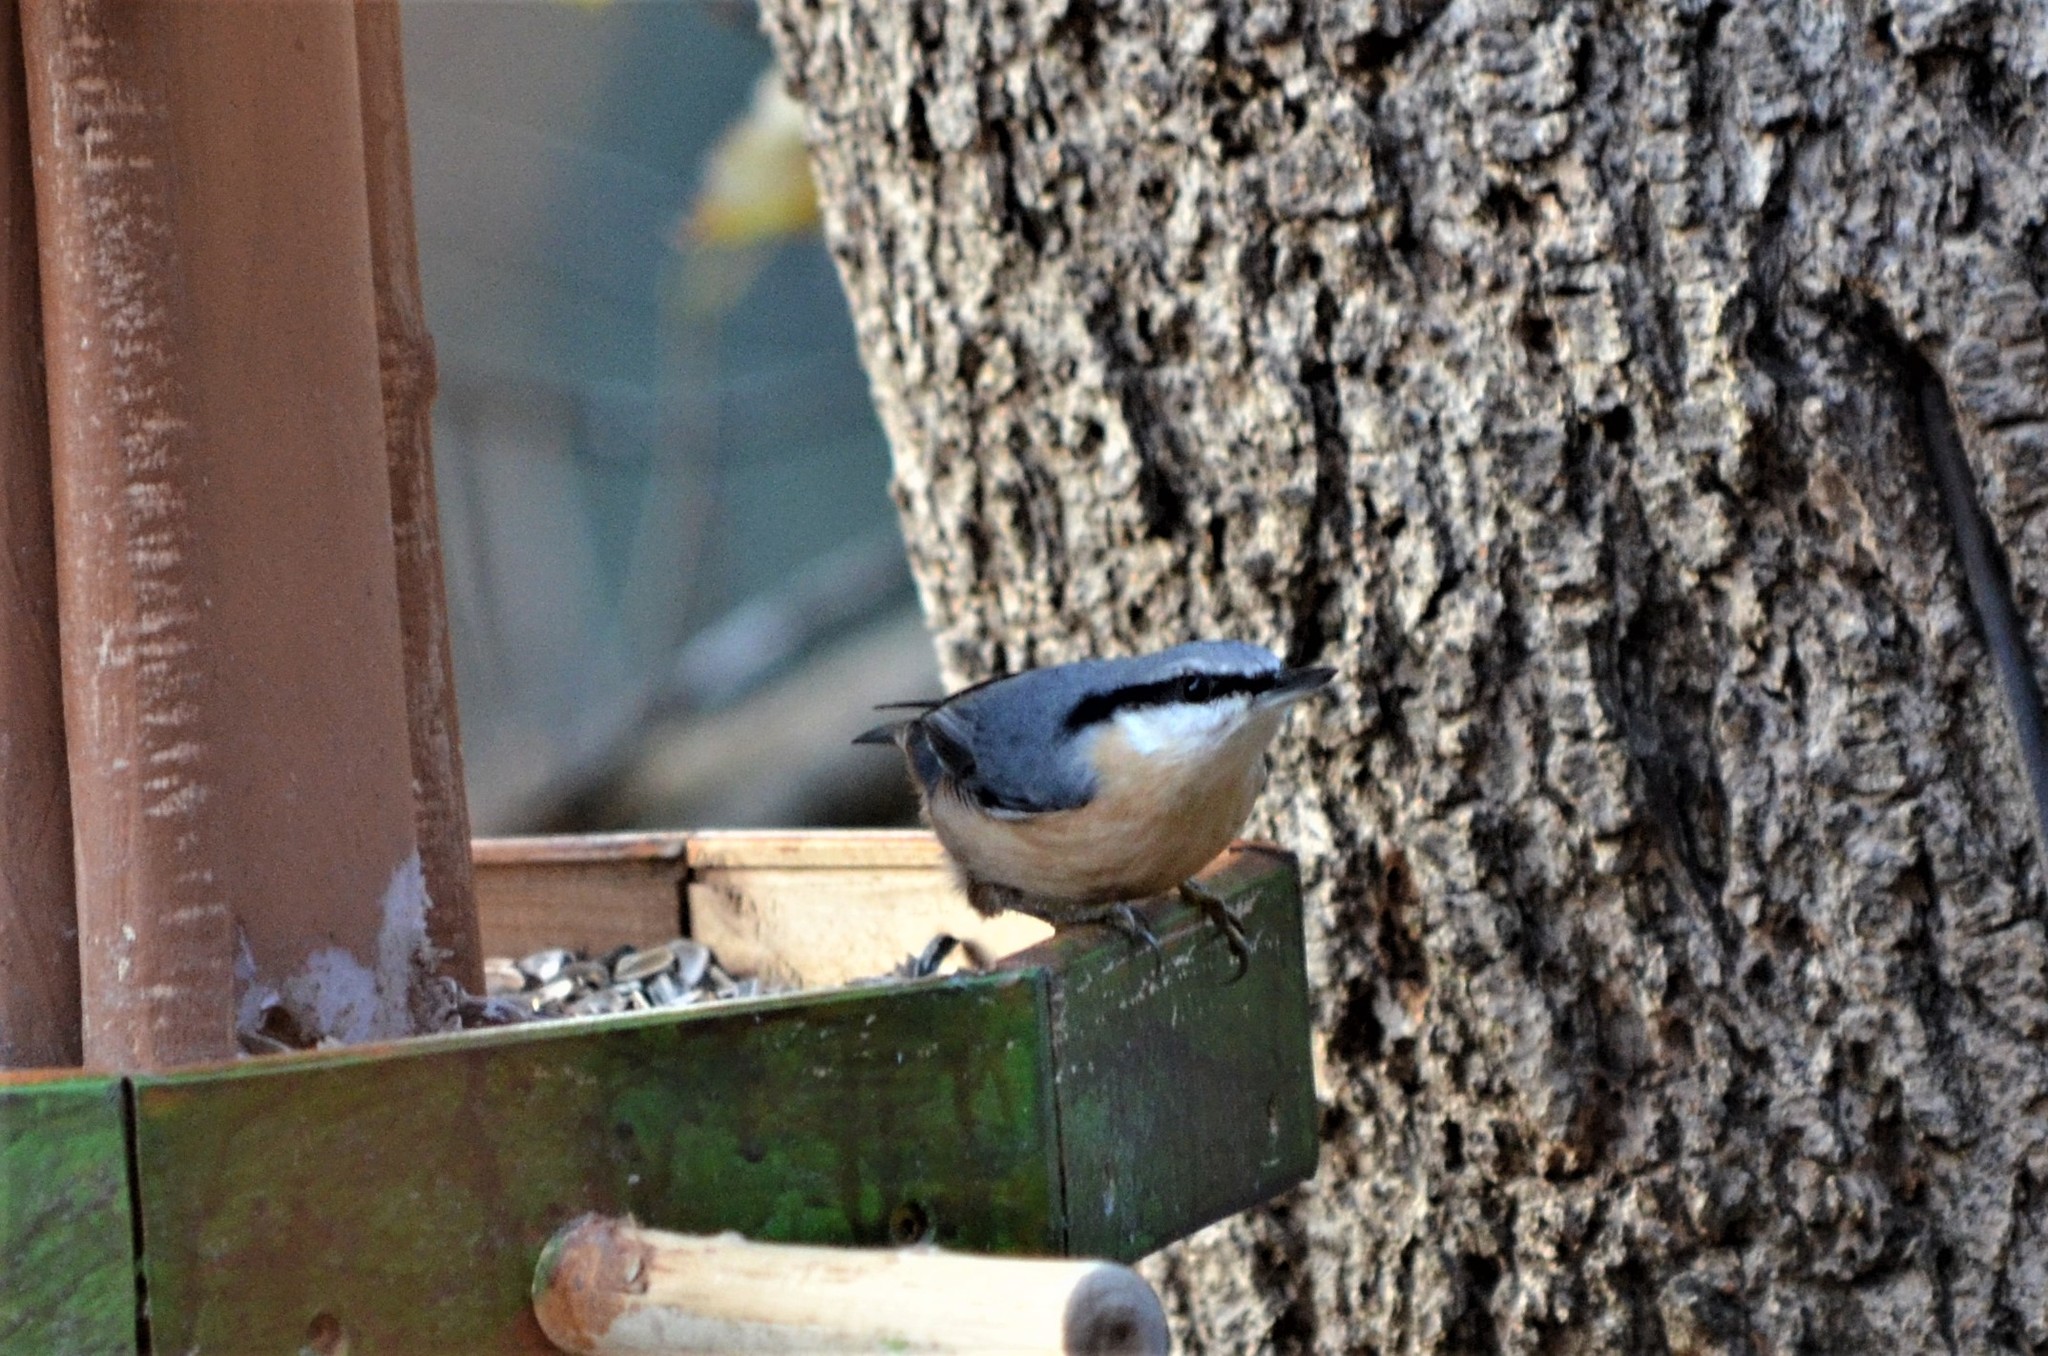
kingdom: Animalia
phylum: Chordata
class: Aves
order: Passeriformes
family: Sittidae
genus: Sitta
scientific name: Sitta europaea
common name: Eurasian nuthatch
